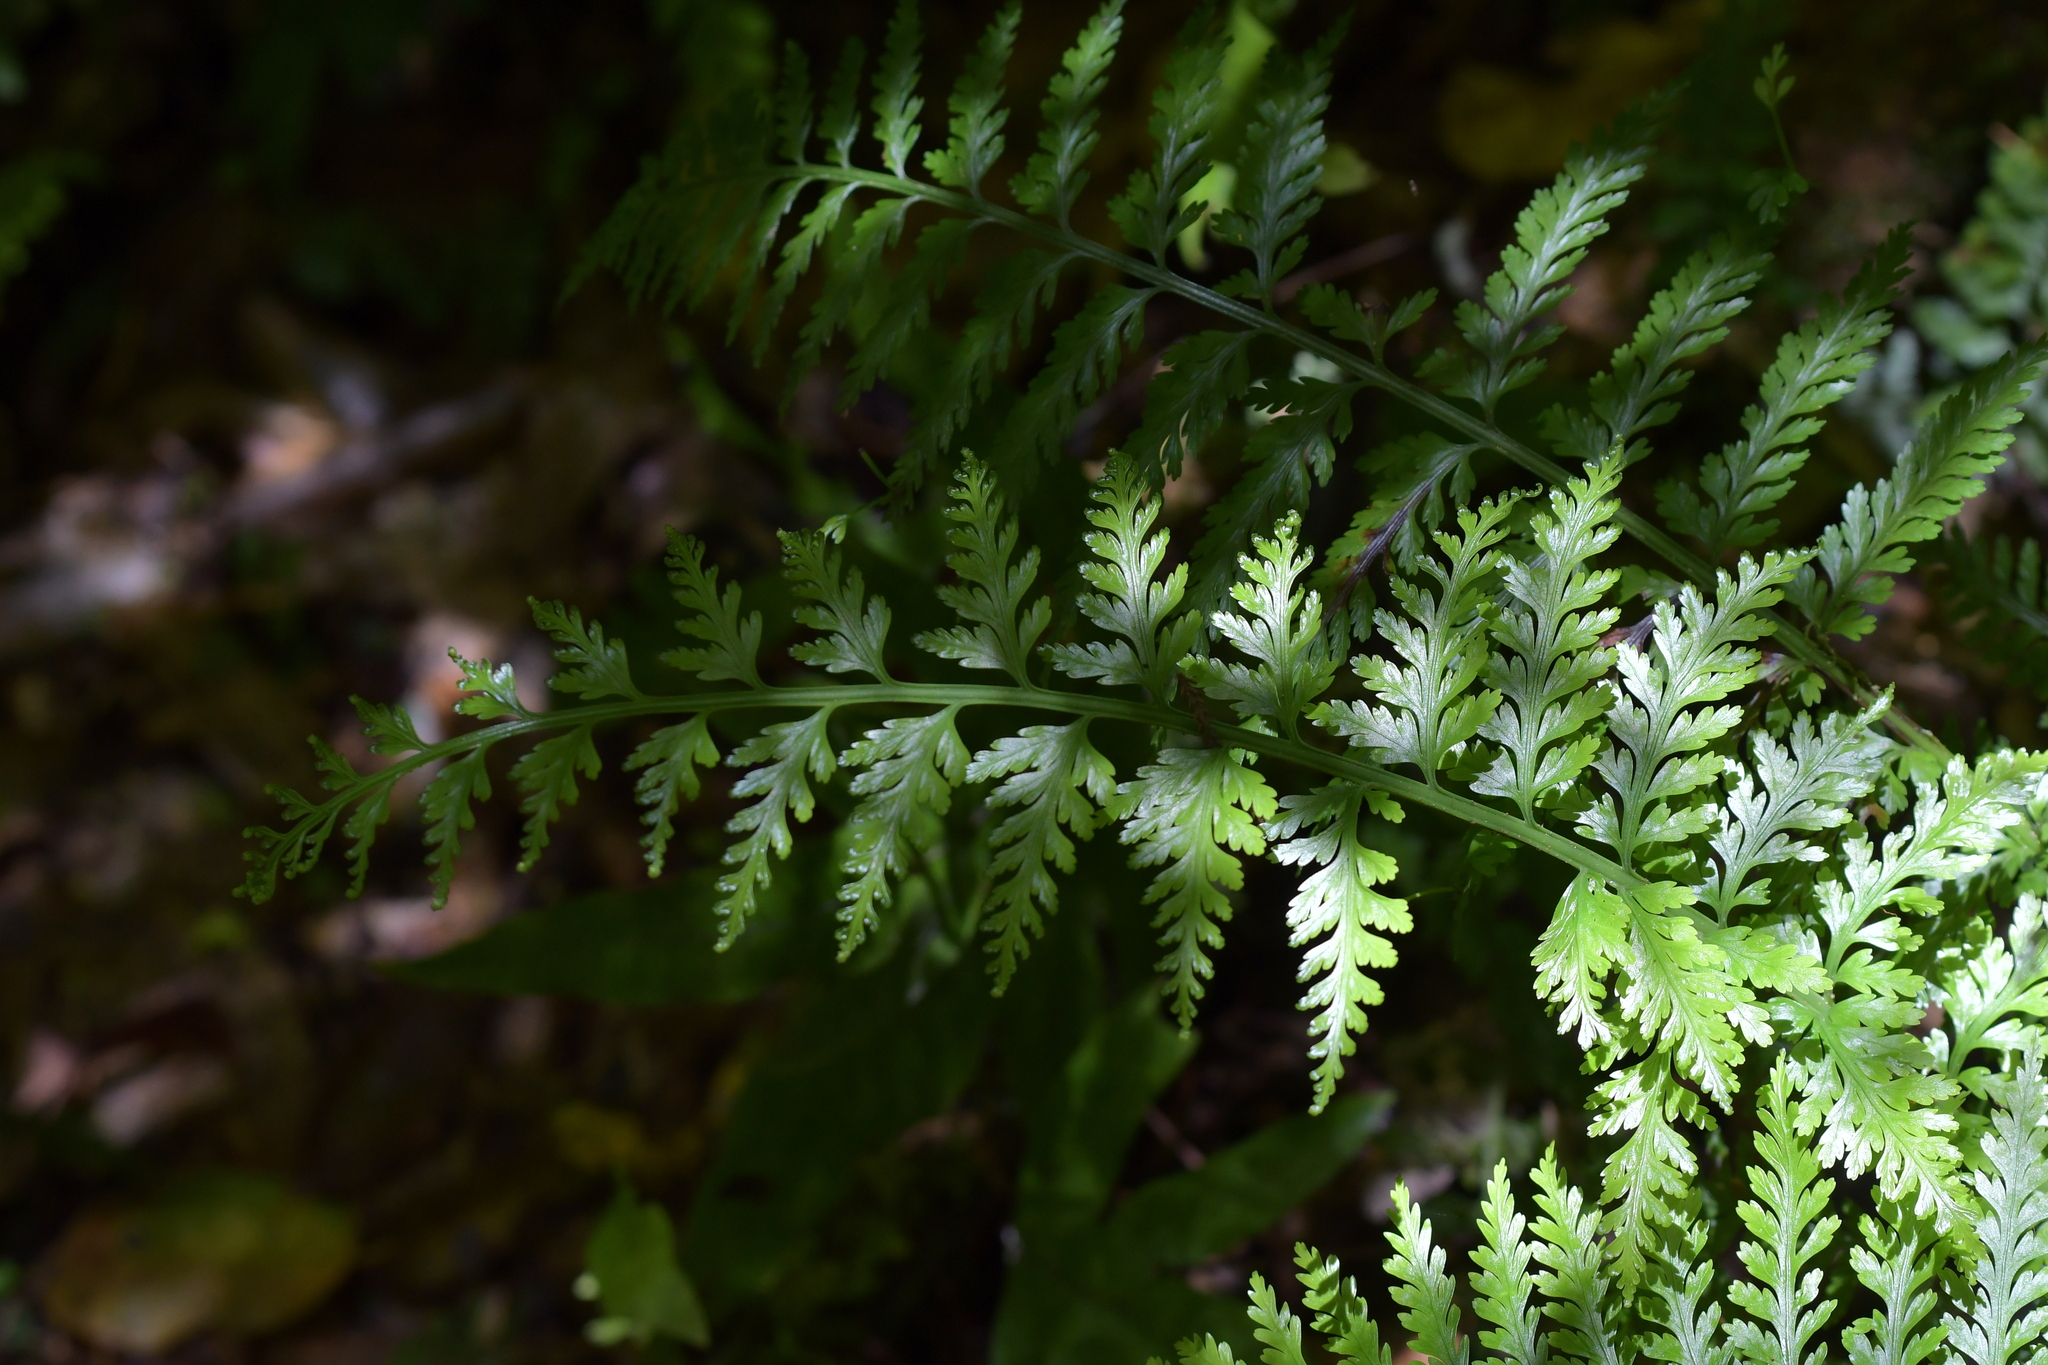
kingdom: Plantae
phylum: Tracheophyta
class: Polypodiopsida
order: Polypodiales
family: Aspleniaceae
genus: Asplenium
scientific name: Asplenium bulbiferum
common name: Mother fern
